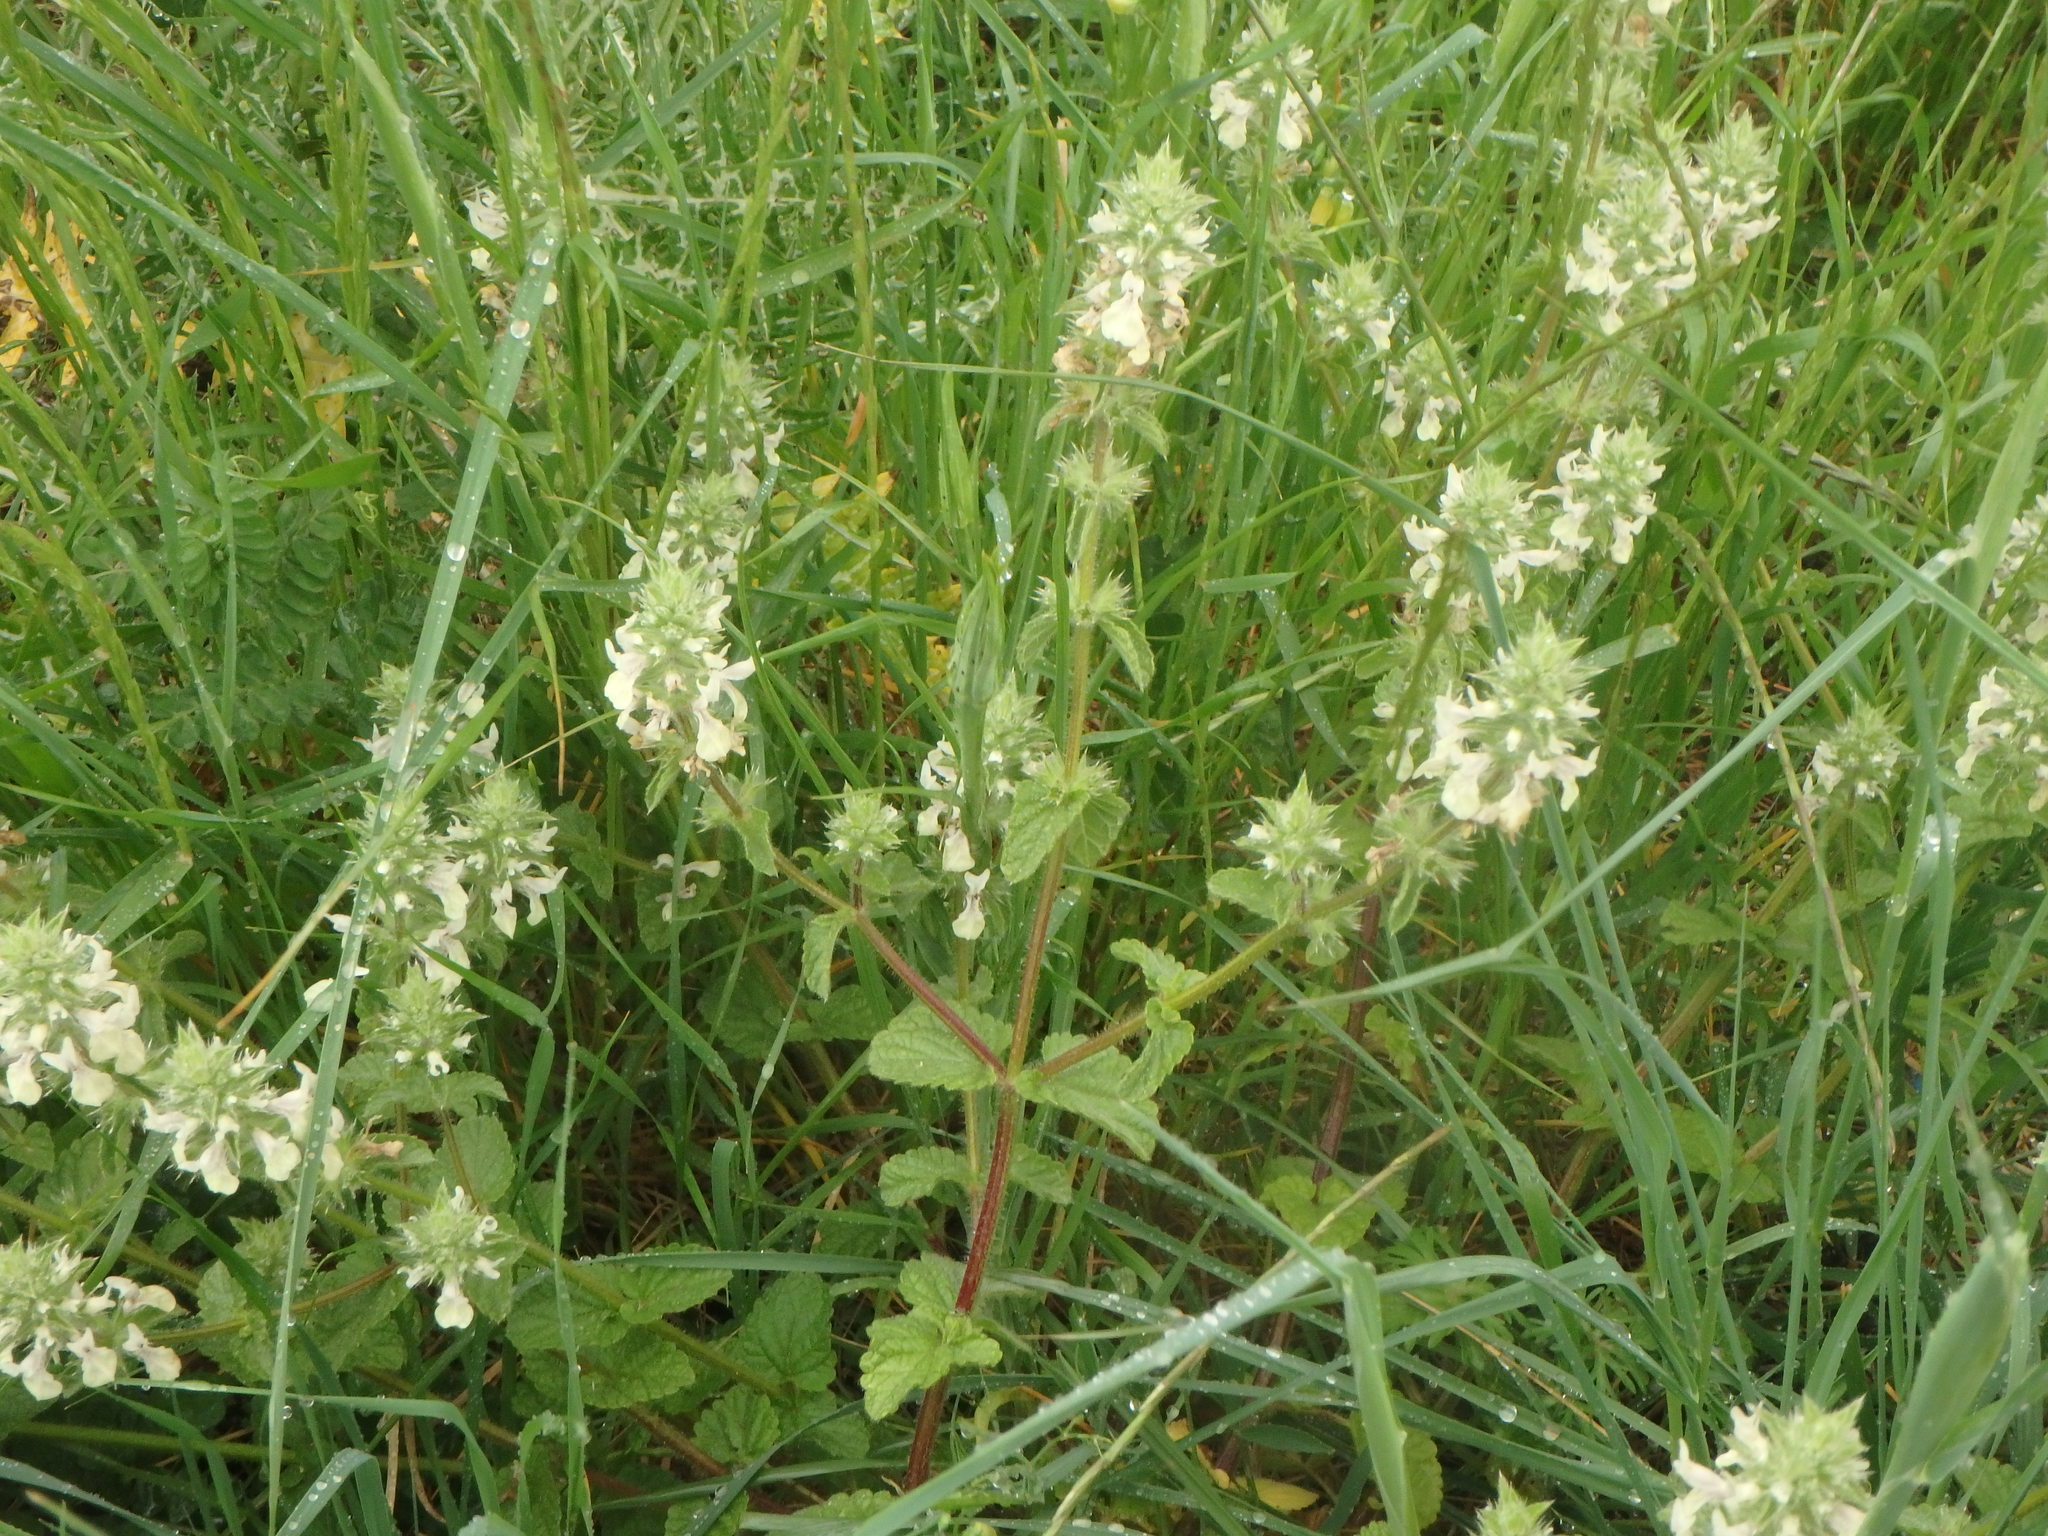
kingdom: Plantae
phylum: Tracheophyta
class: Magnoliopsida
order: Lamiales
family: Lamiaceae
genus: Stachys
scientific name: Stachys ocymastrum
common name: Italian hedgenettle
